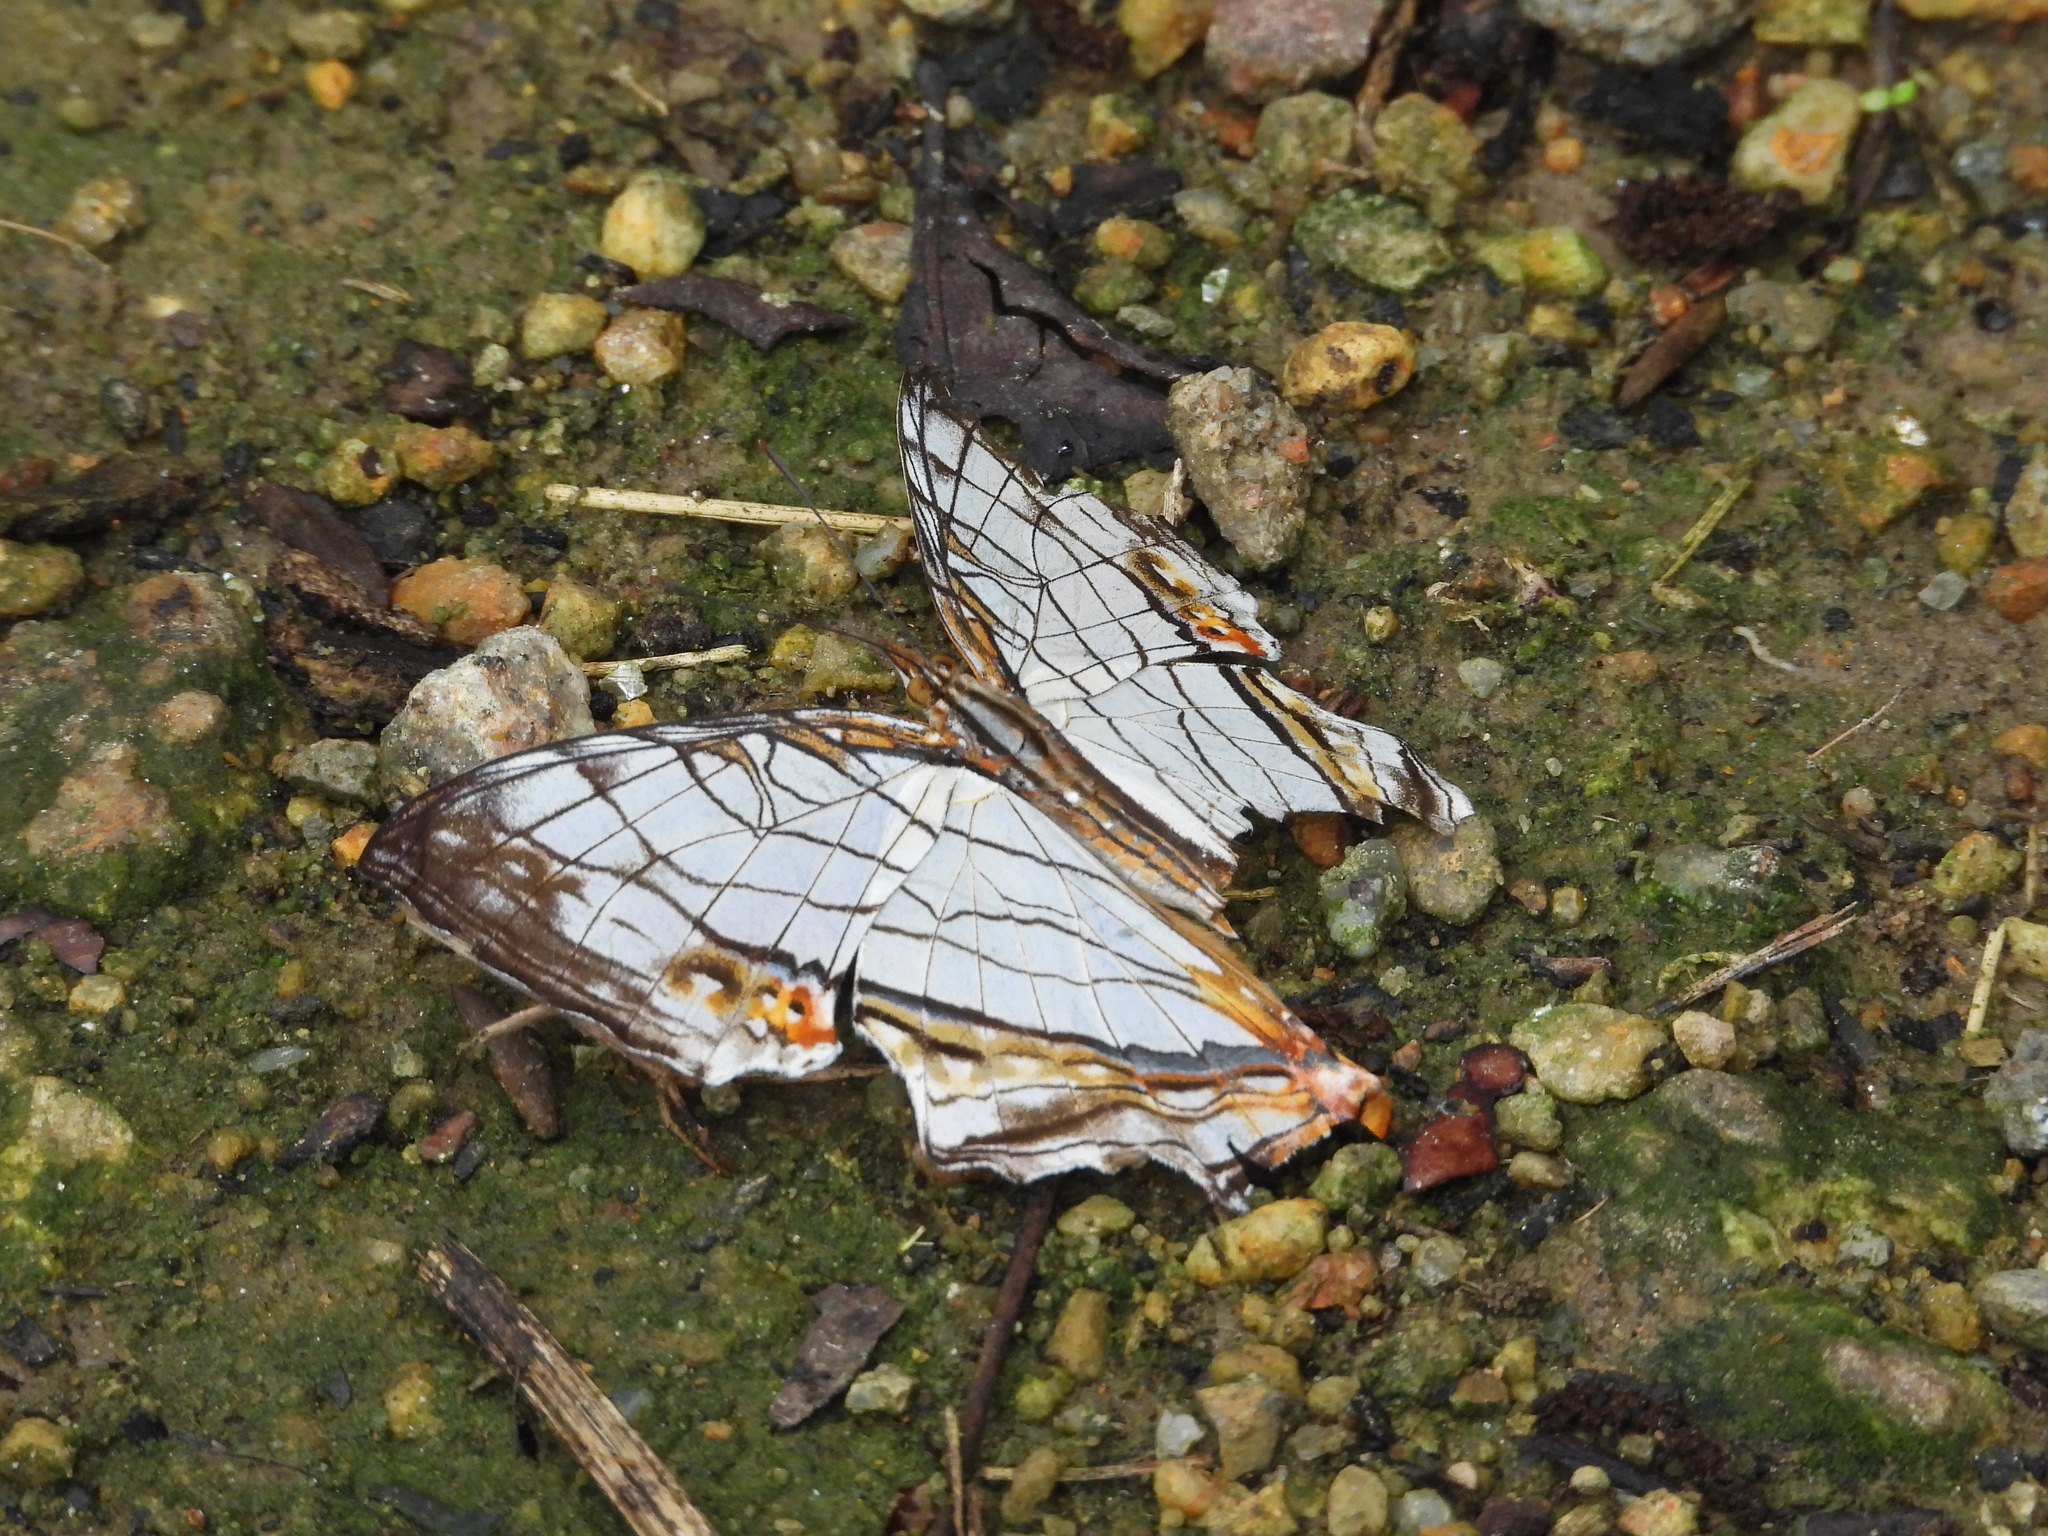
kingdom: Animalia
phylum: Arthropoda
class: Insecta
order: Lepidoptera
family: Nymphalidae
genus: Cyrestis
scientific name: Cyrestis thyodamas
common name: Common mapwing
